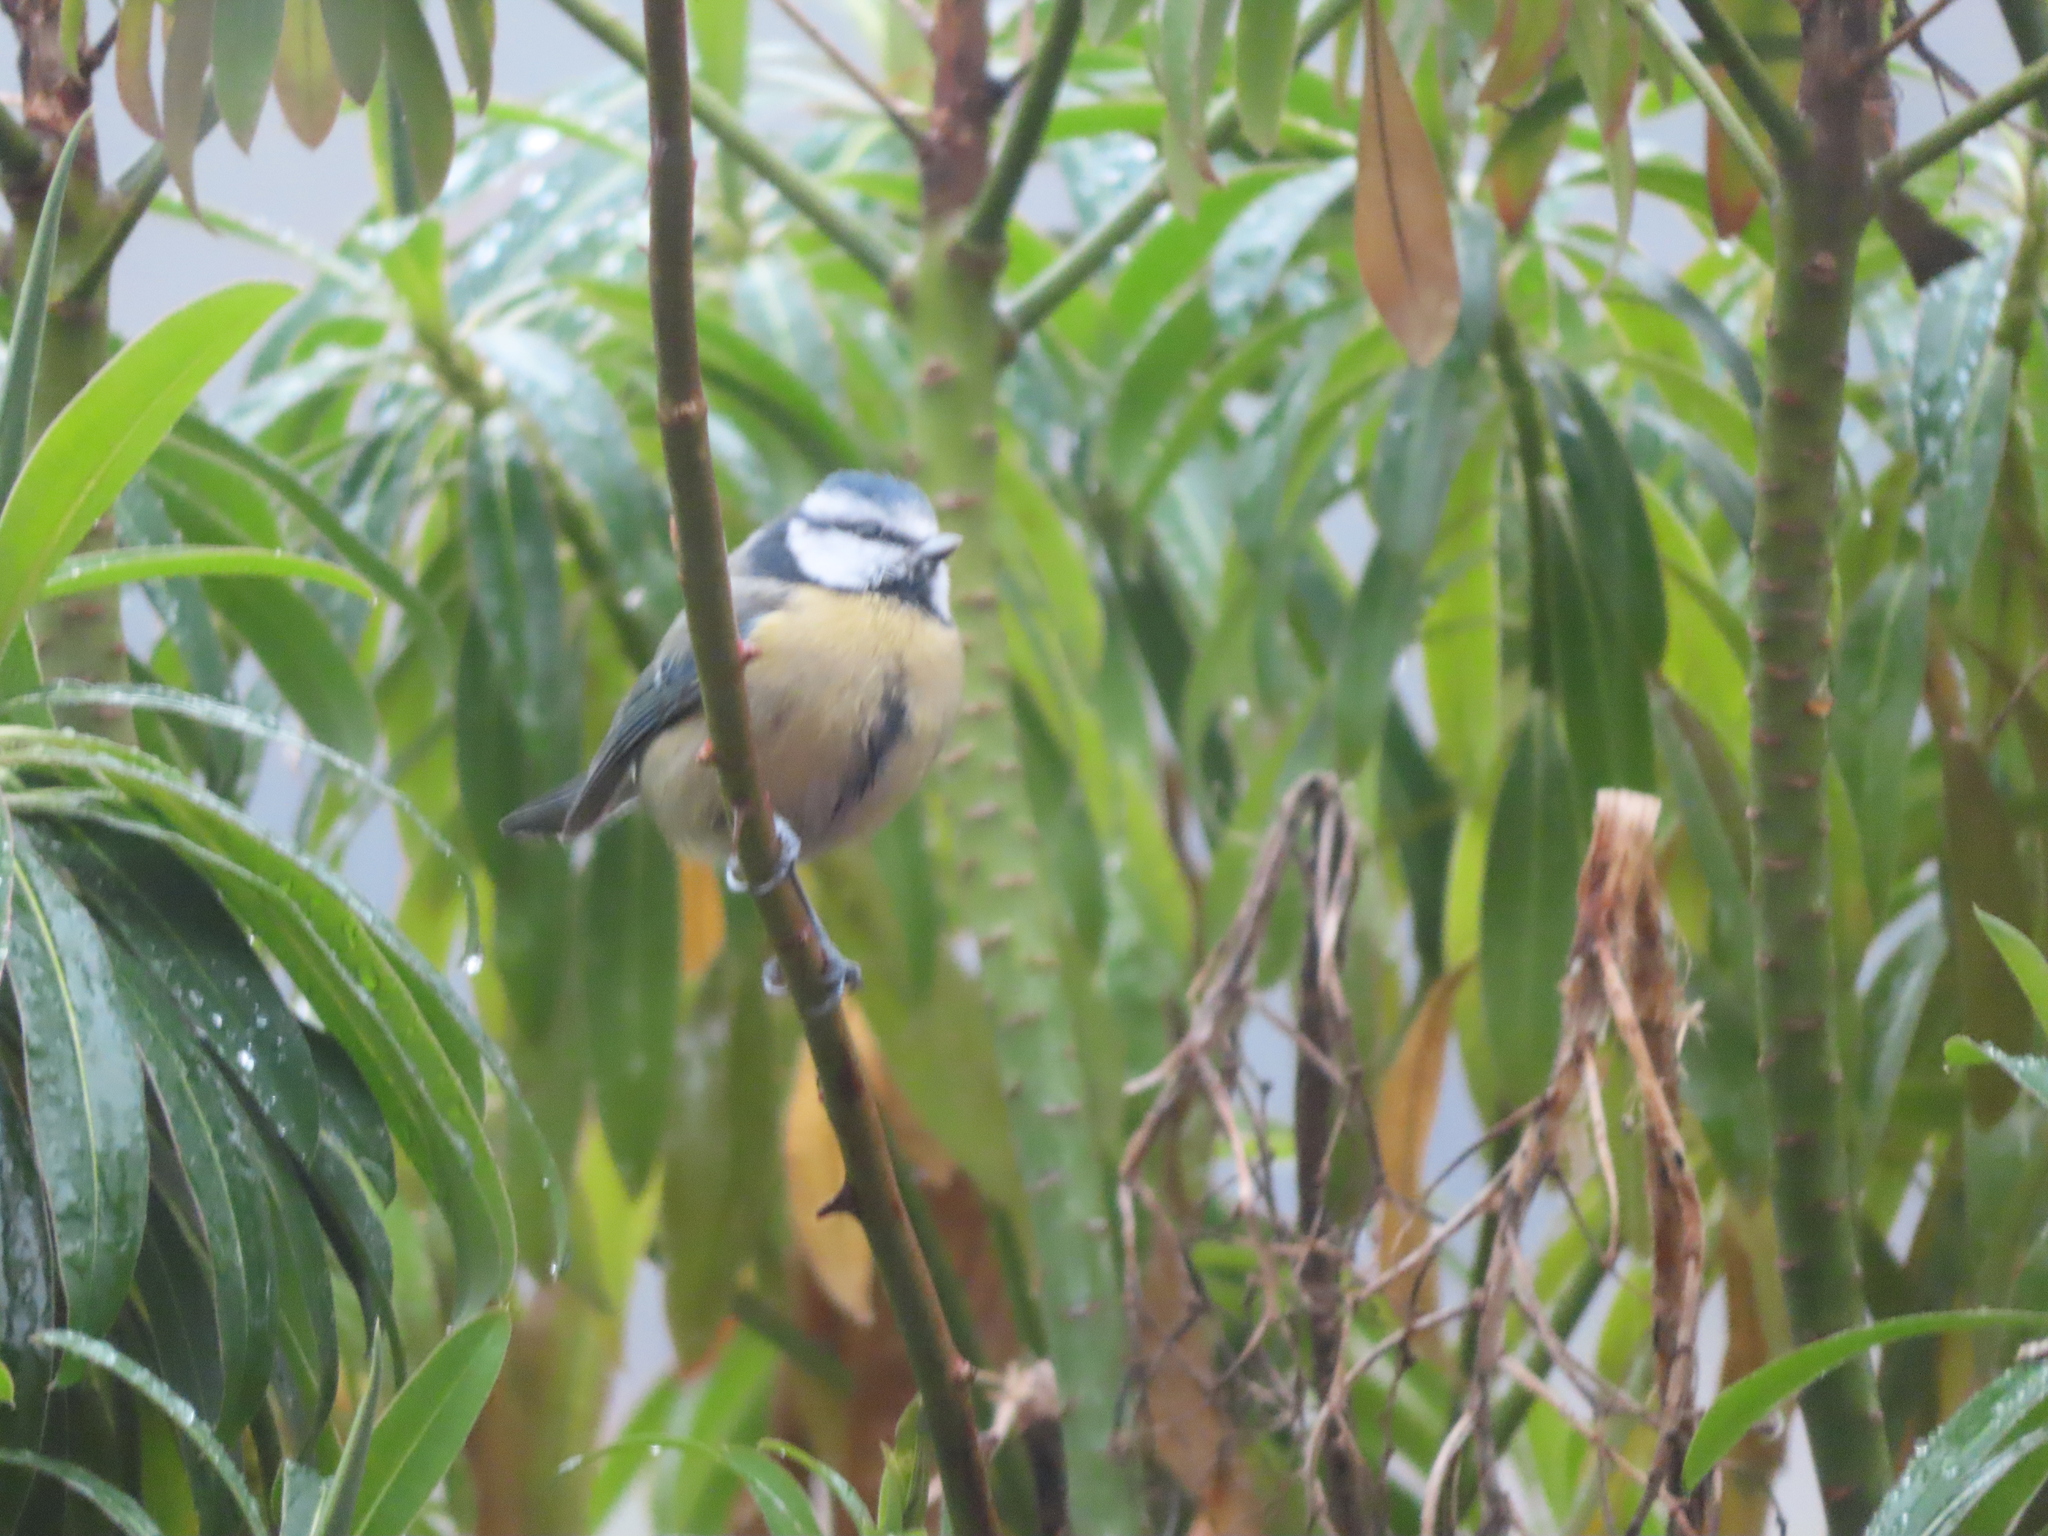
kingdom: Animalia
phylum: Chordata
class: Aves
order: Passeriformes
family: Paridae
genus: Cyanistes
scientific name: Cyanistes caeruleus
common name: Eurasian blue tit
